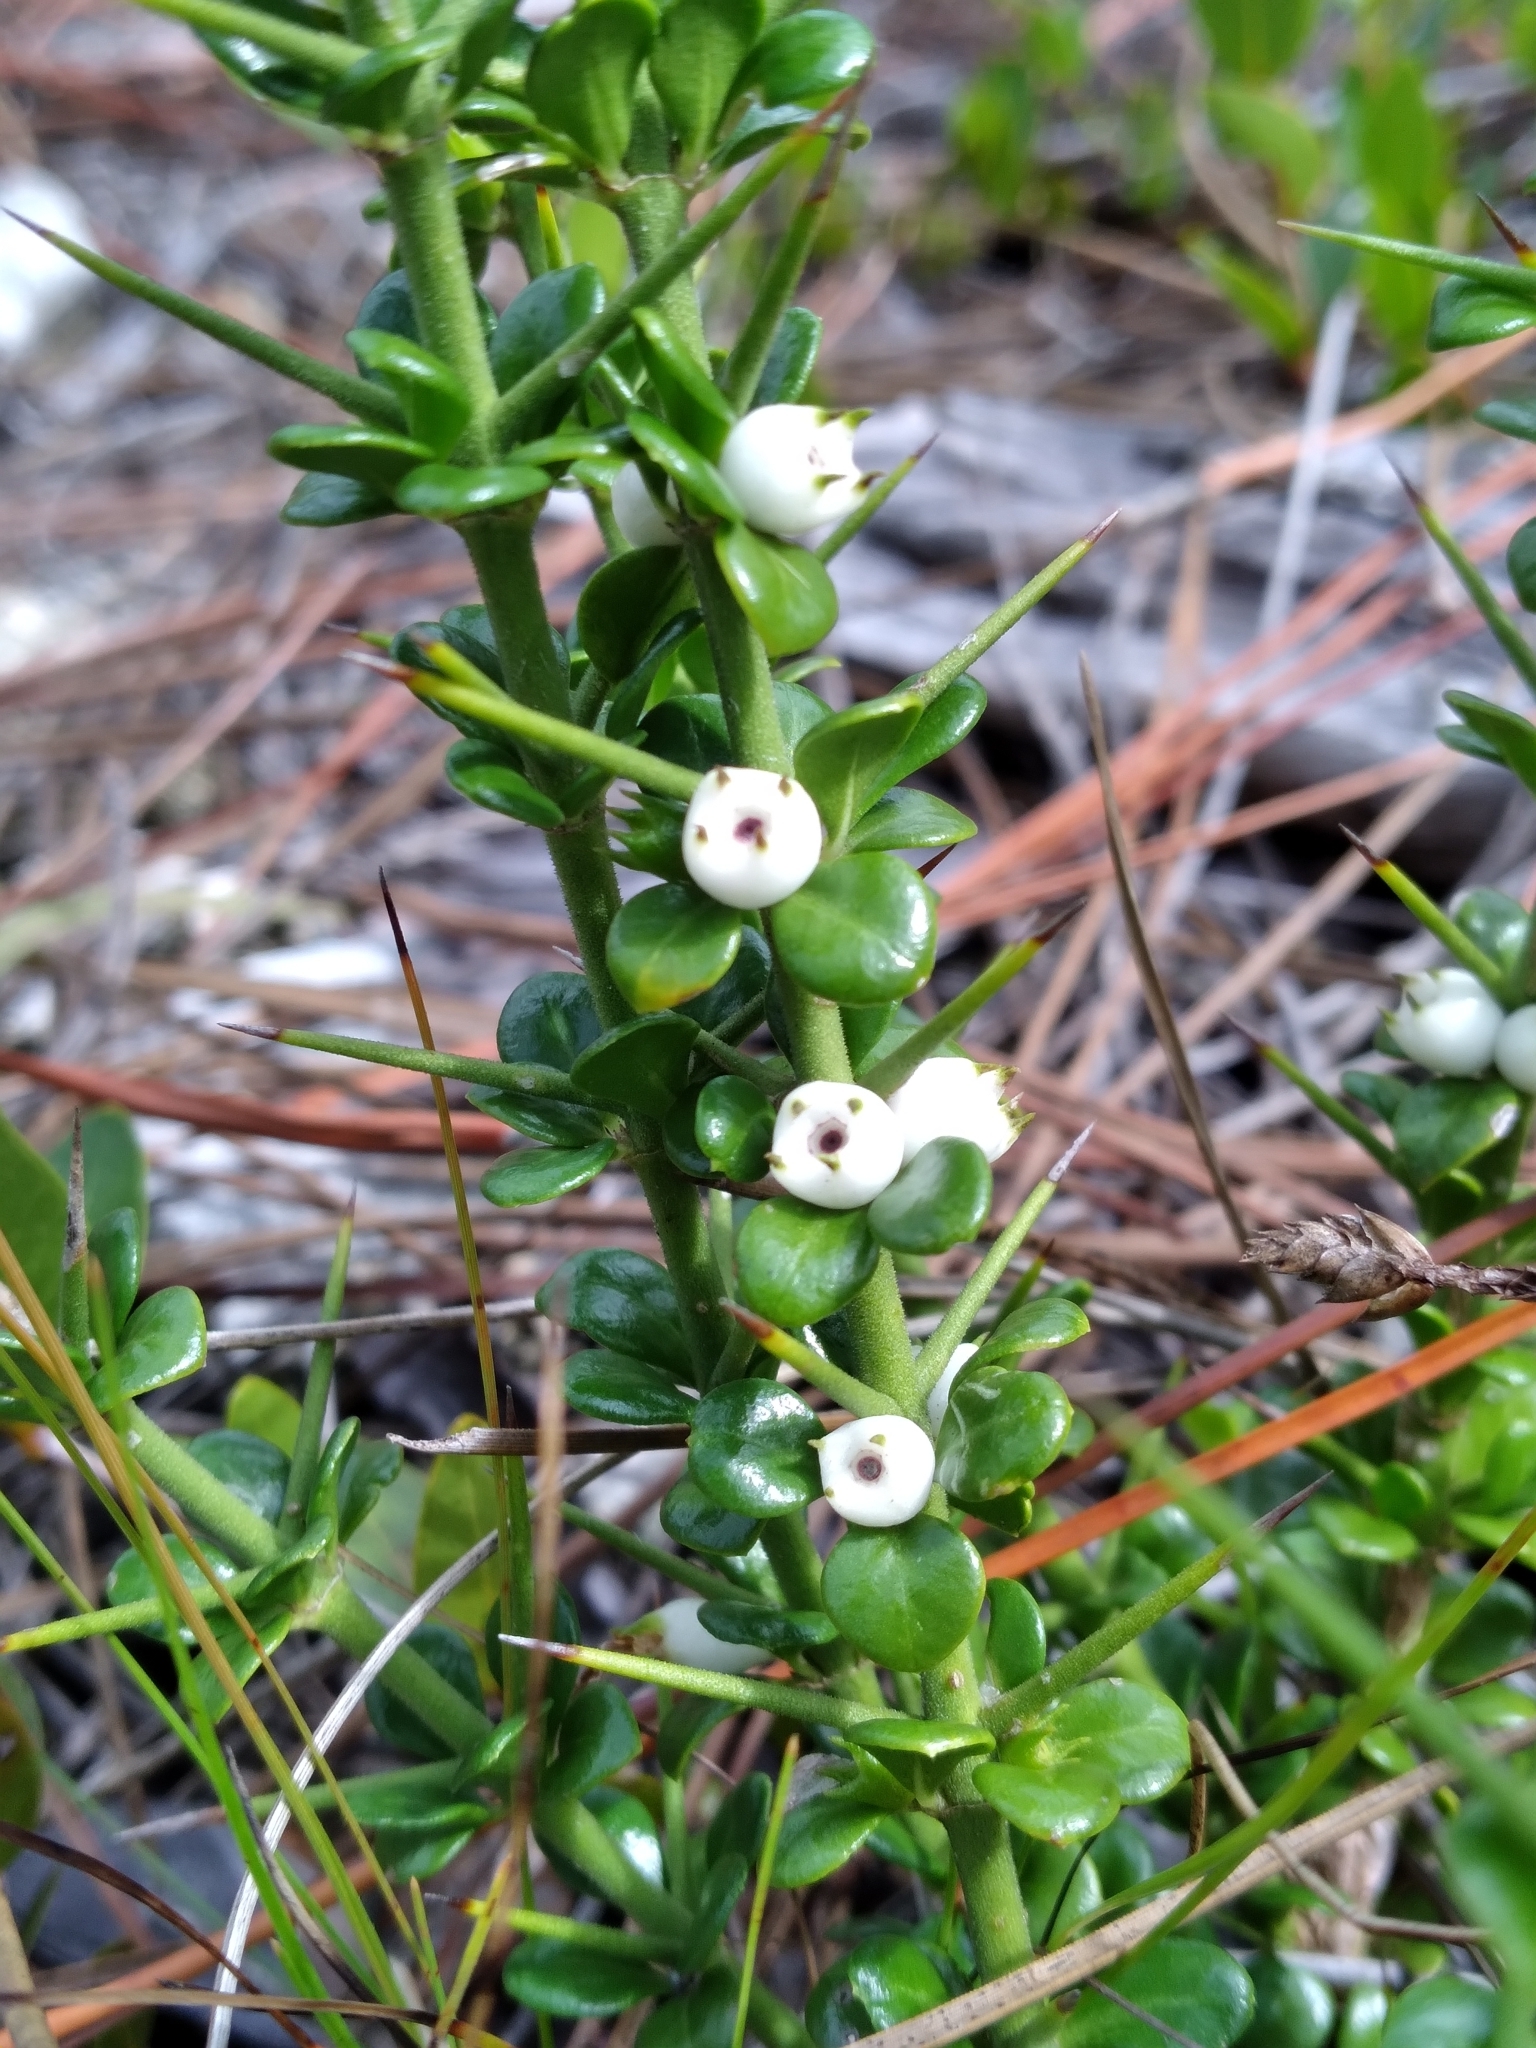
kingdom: Plantae
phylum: Tracheophyta
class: Magnoliopsida
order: Gentianales
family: Rubiaceae
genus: Catesbaea
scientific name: Catesbaea parviflora
